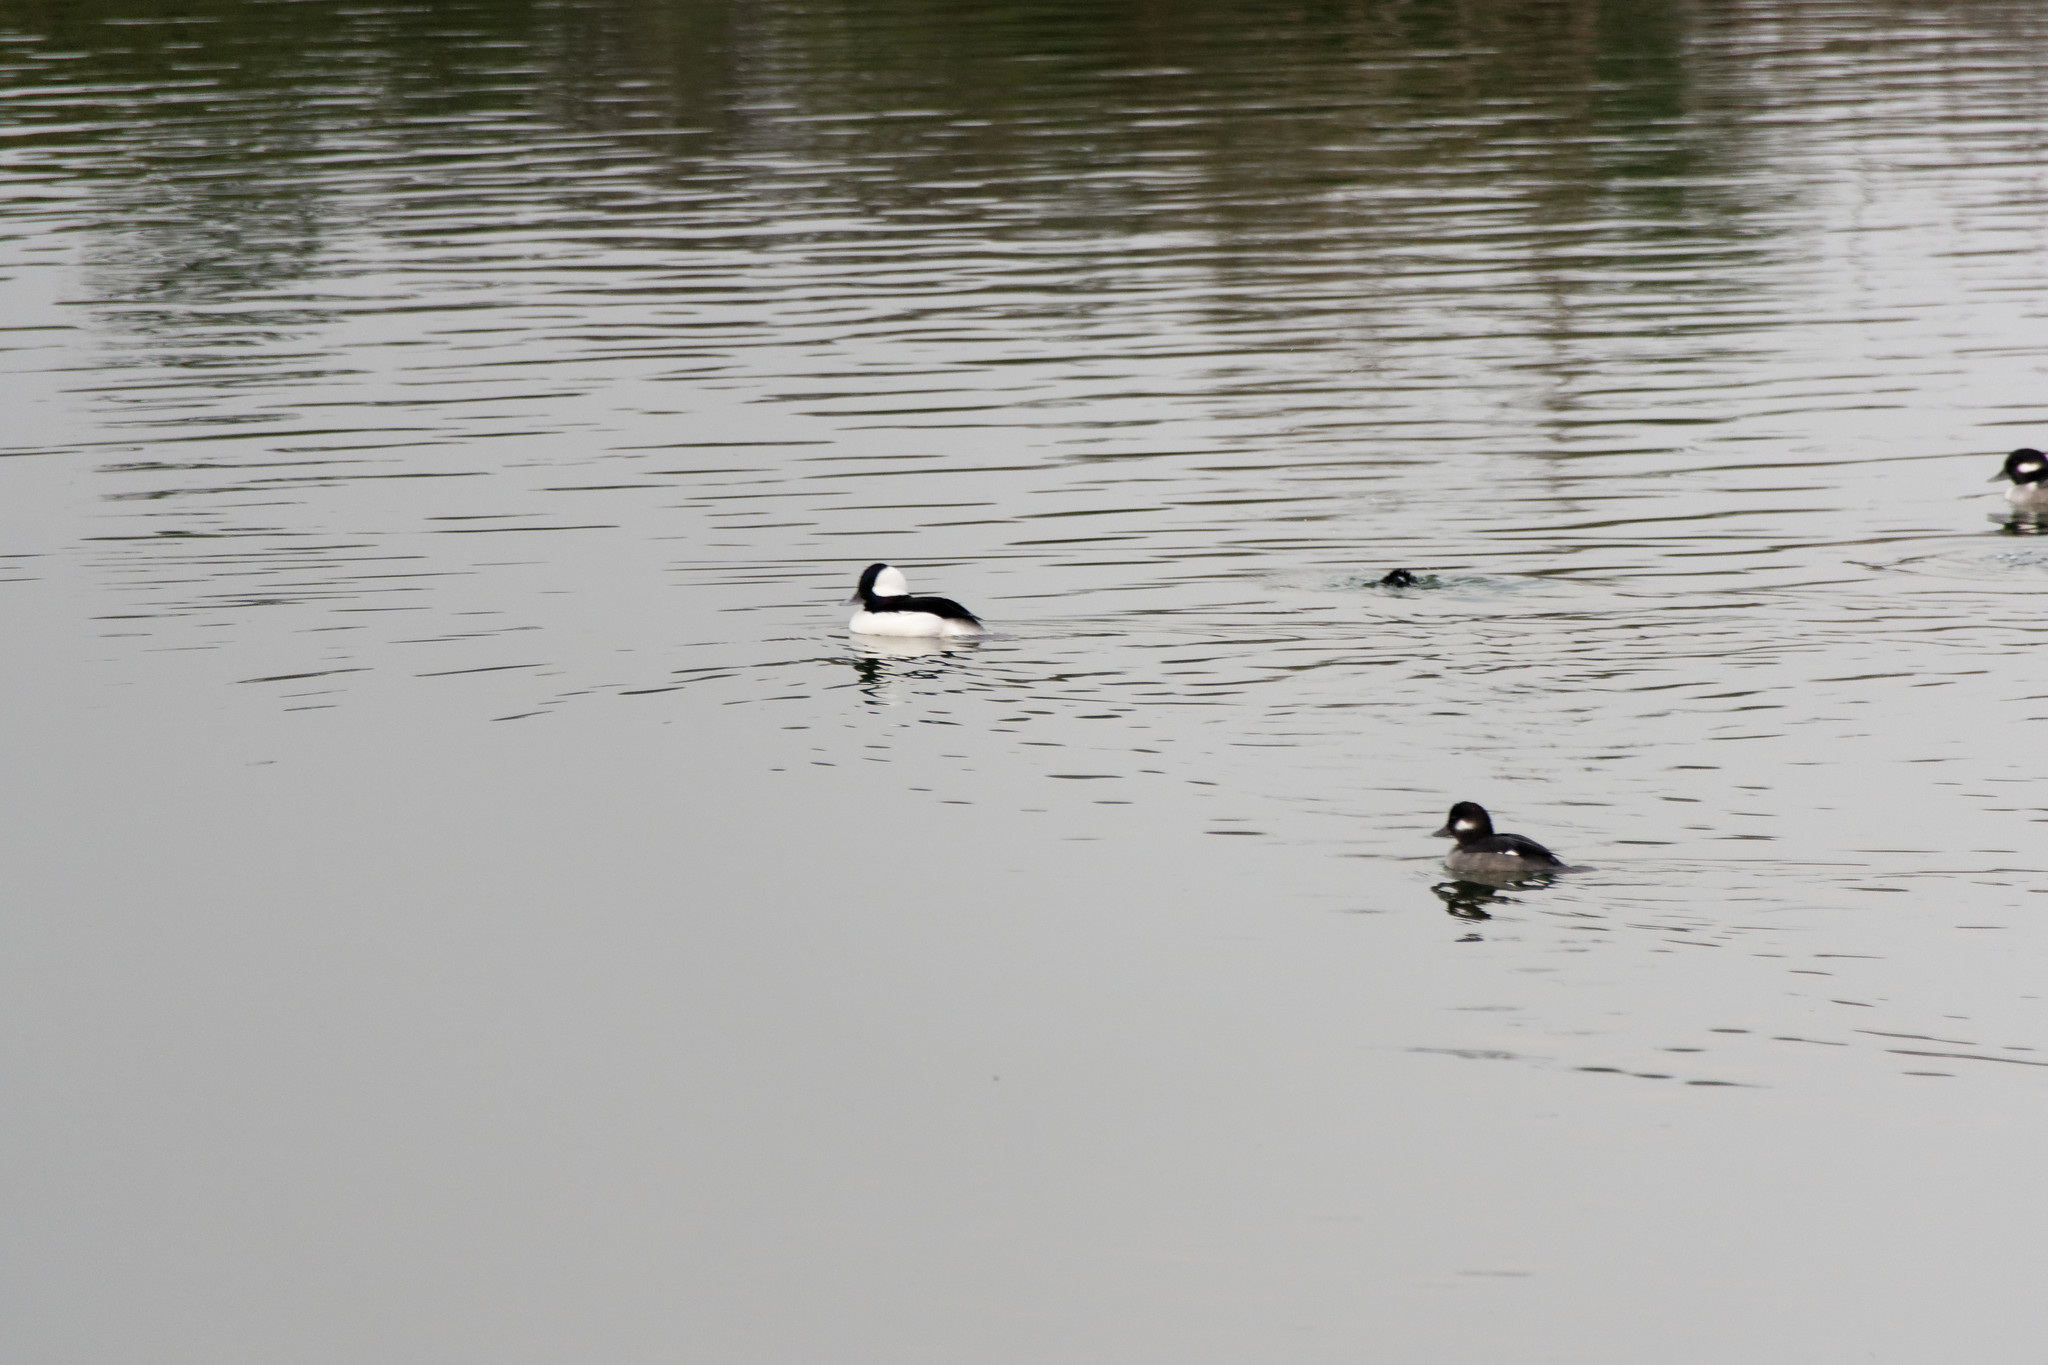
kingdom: Animalia
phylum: Chordata
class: Aves
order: Anseriformes
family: Anatidae
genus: Bucephala
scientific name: Bucephala albeola
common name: Bufflehead
